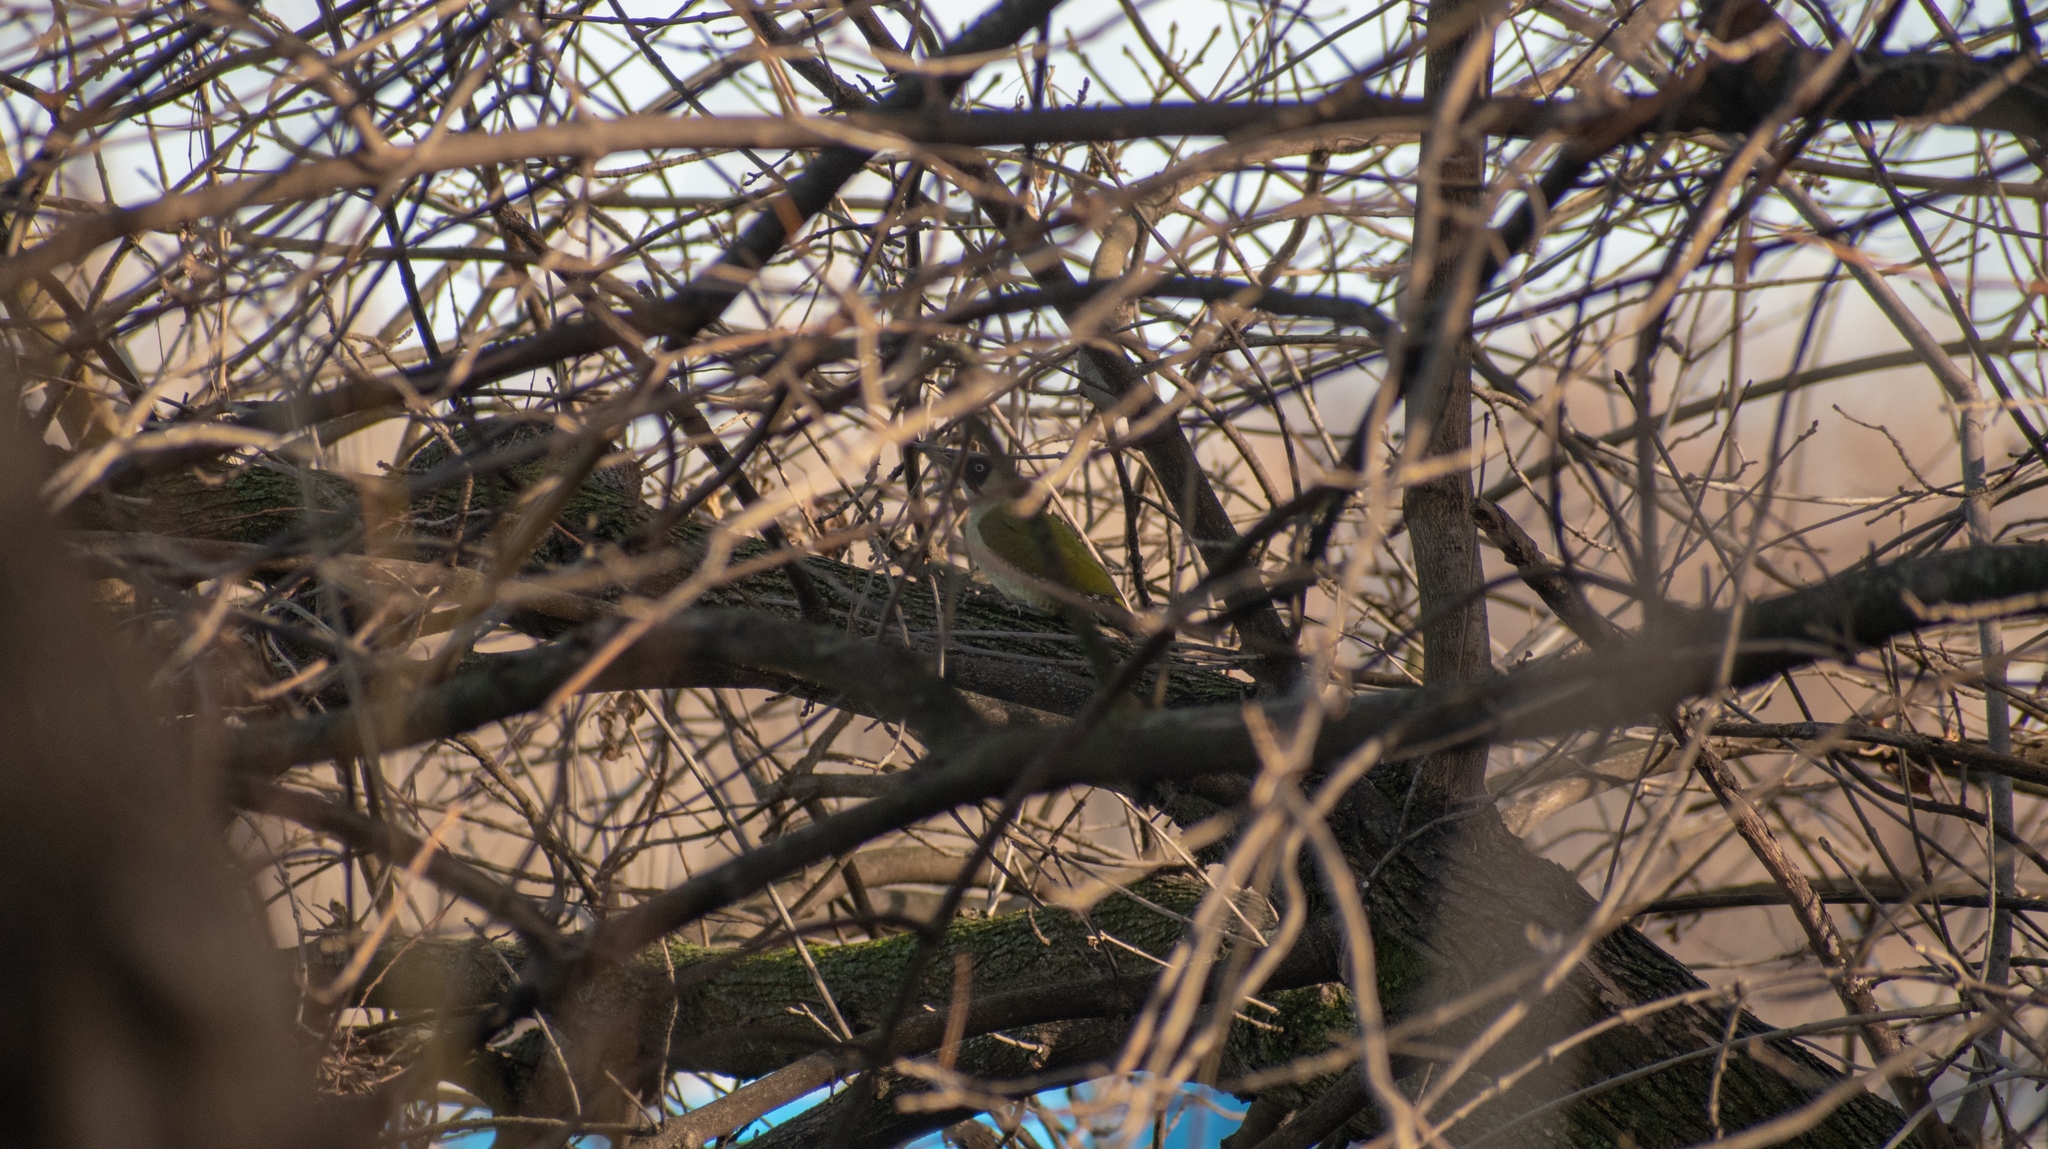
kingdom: Animalia
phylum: Chordata
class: Aves
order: Piciformes
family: Picidae
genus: Picus
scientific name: Picus viridis
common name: European green woodpecker
